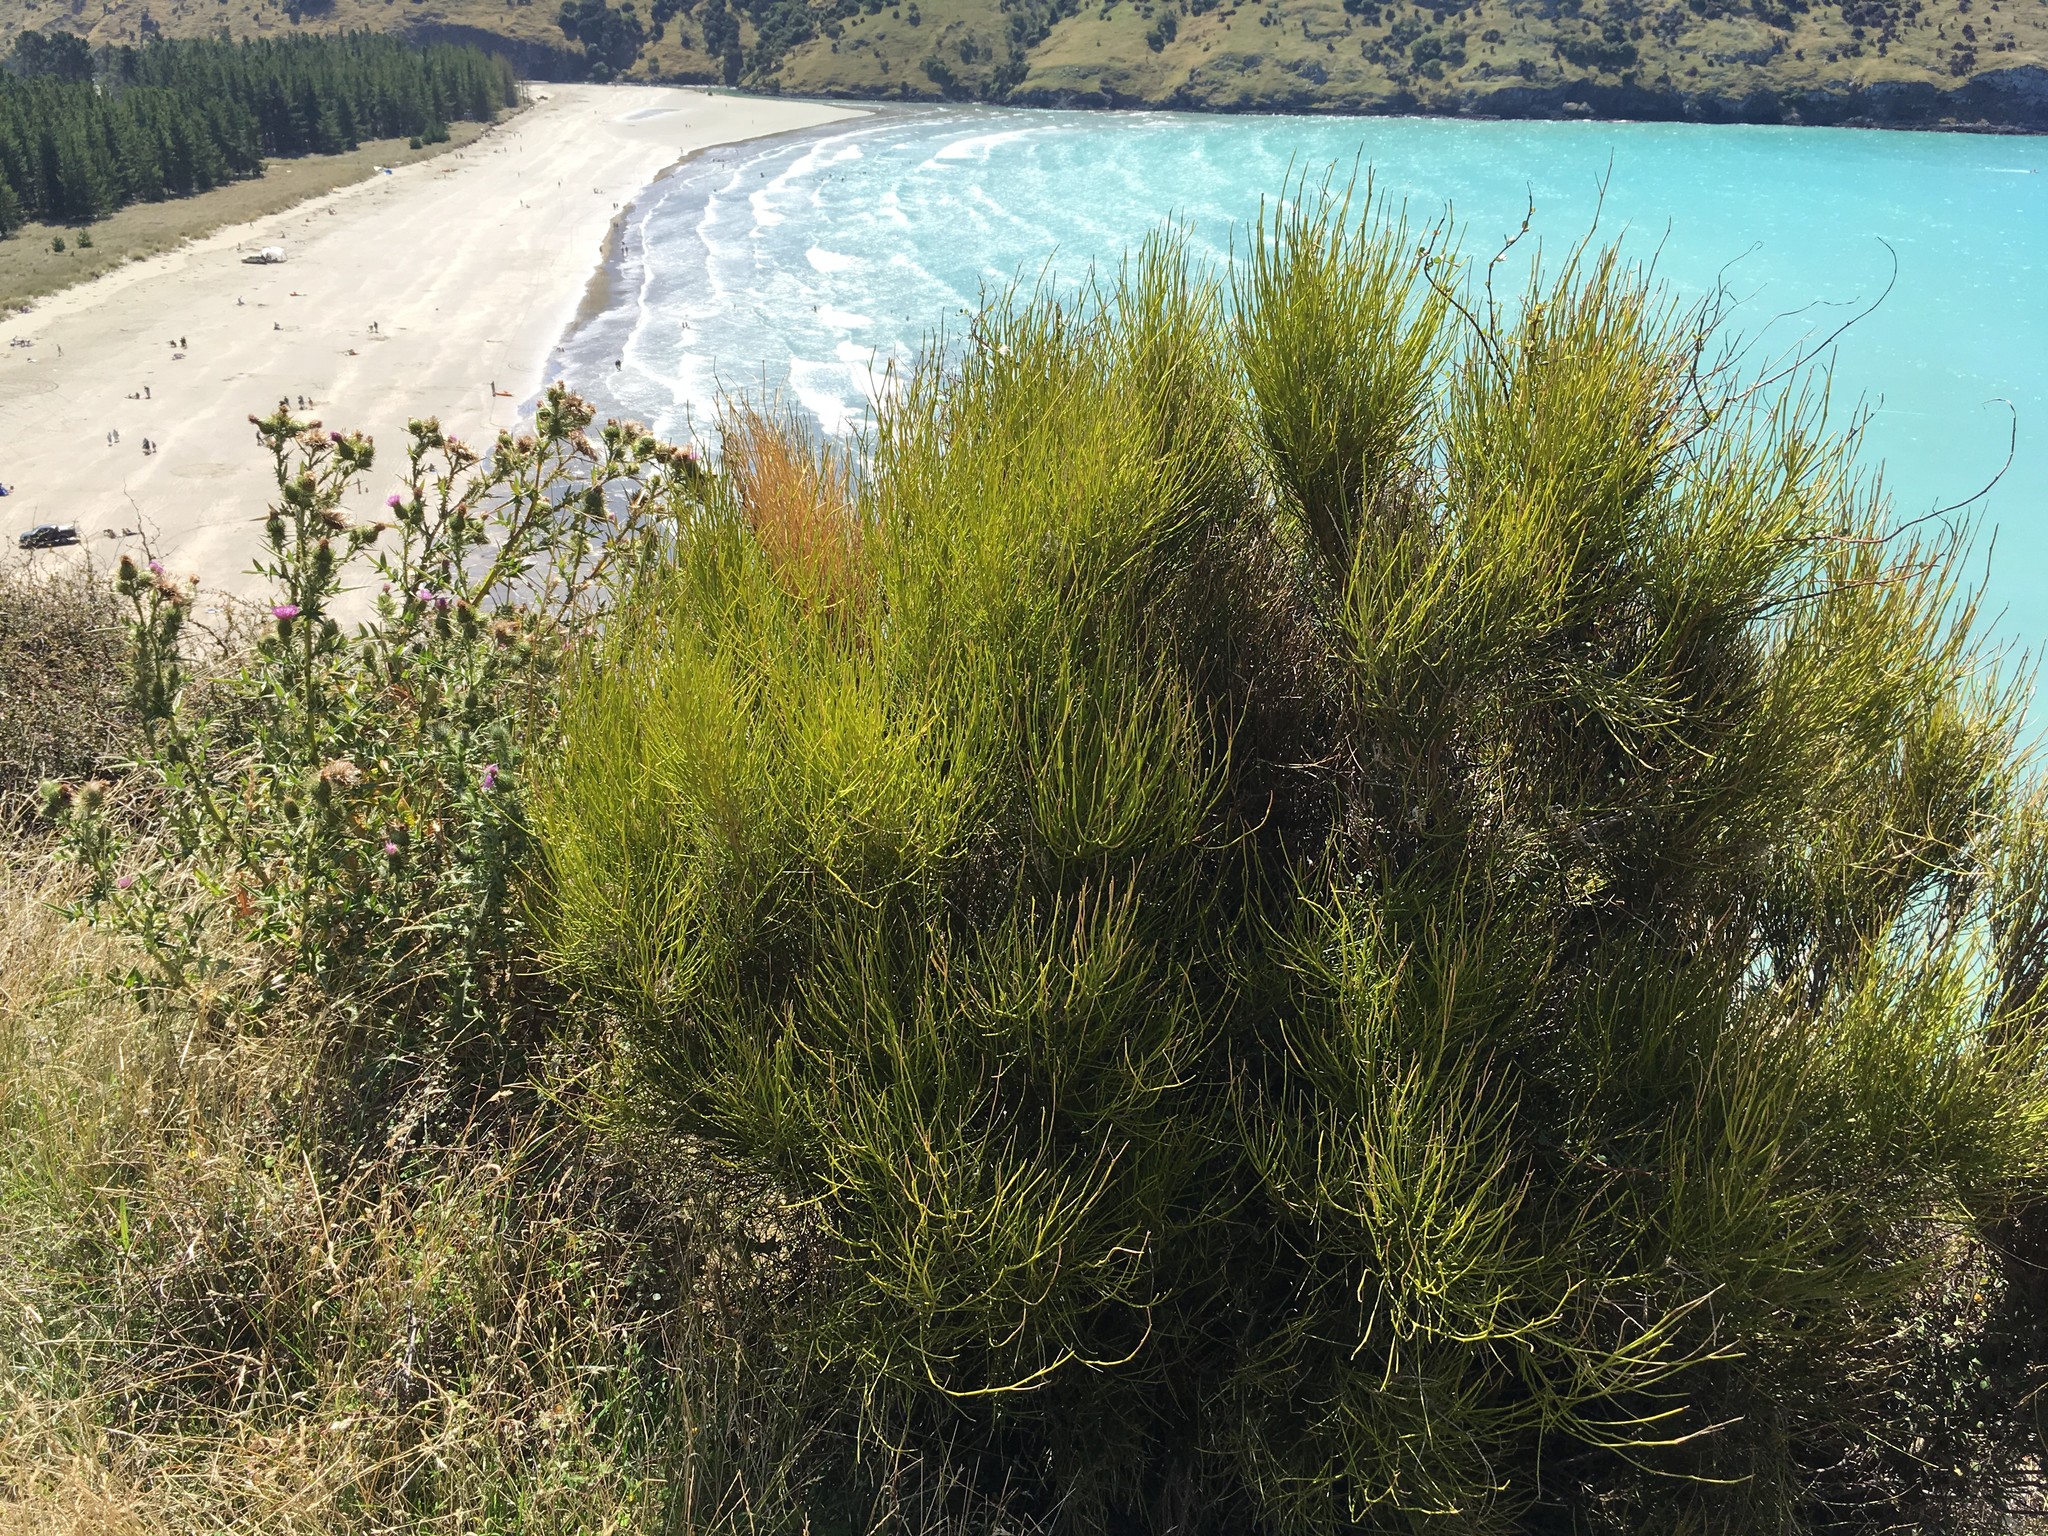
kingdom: Plantae
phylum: Tracheophyta
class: Magnoliopsida
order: Fabales
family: Fabaceae
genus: Carmichaelia
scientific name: Carmichaelia australis
